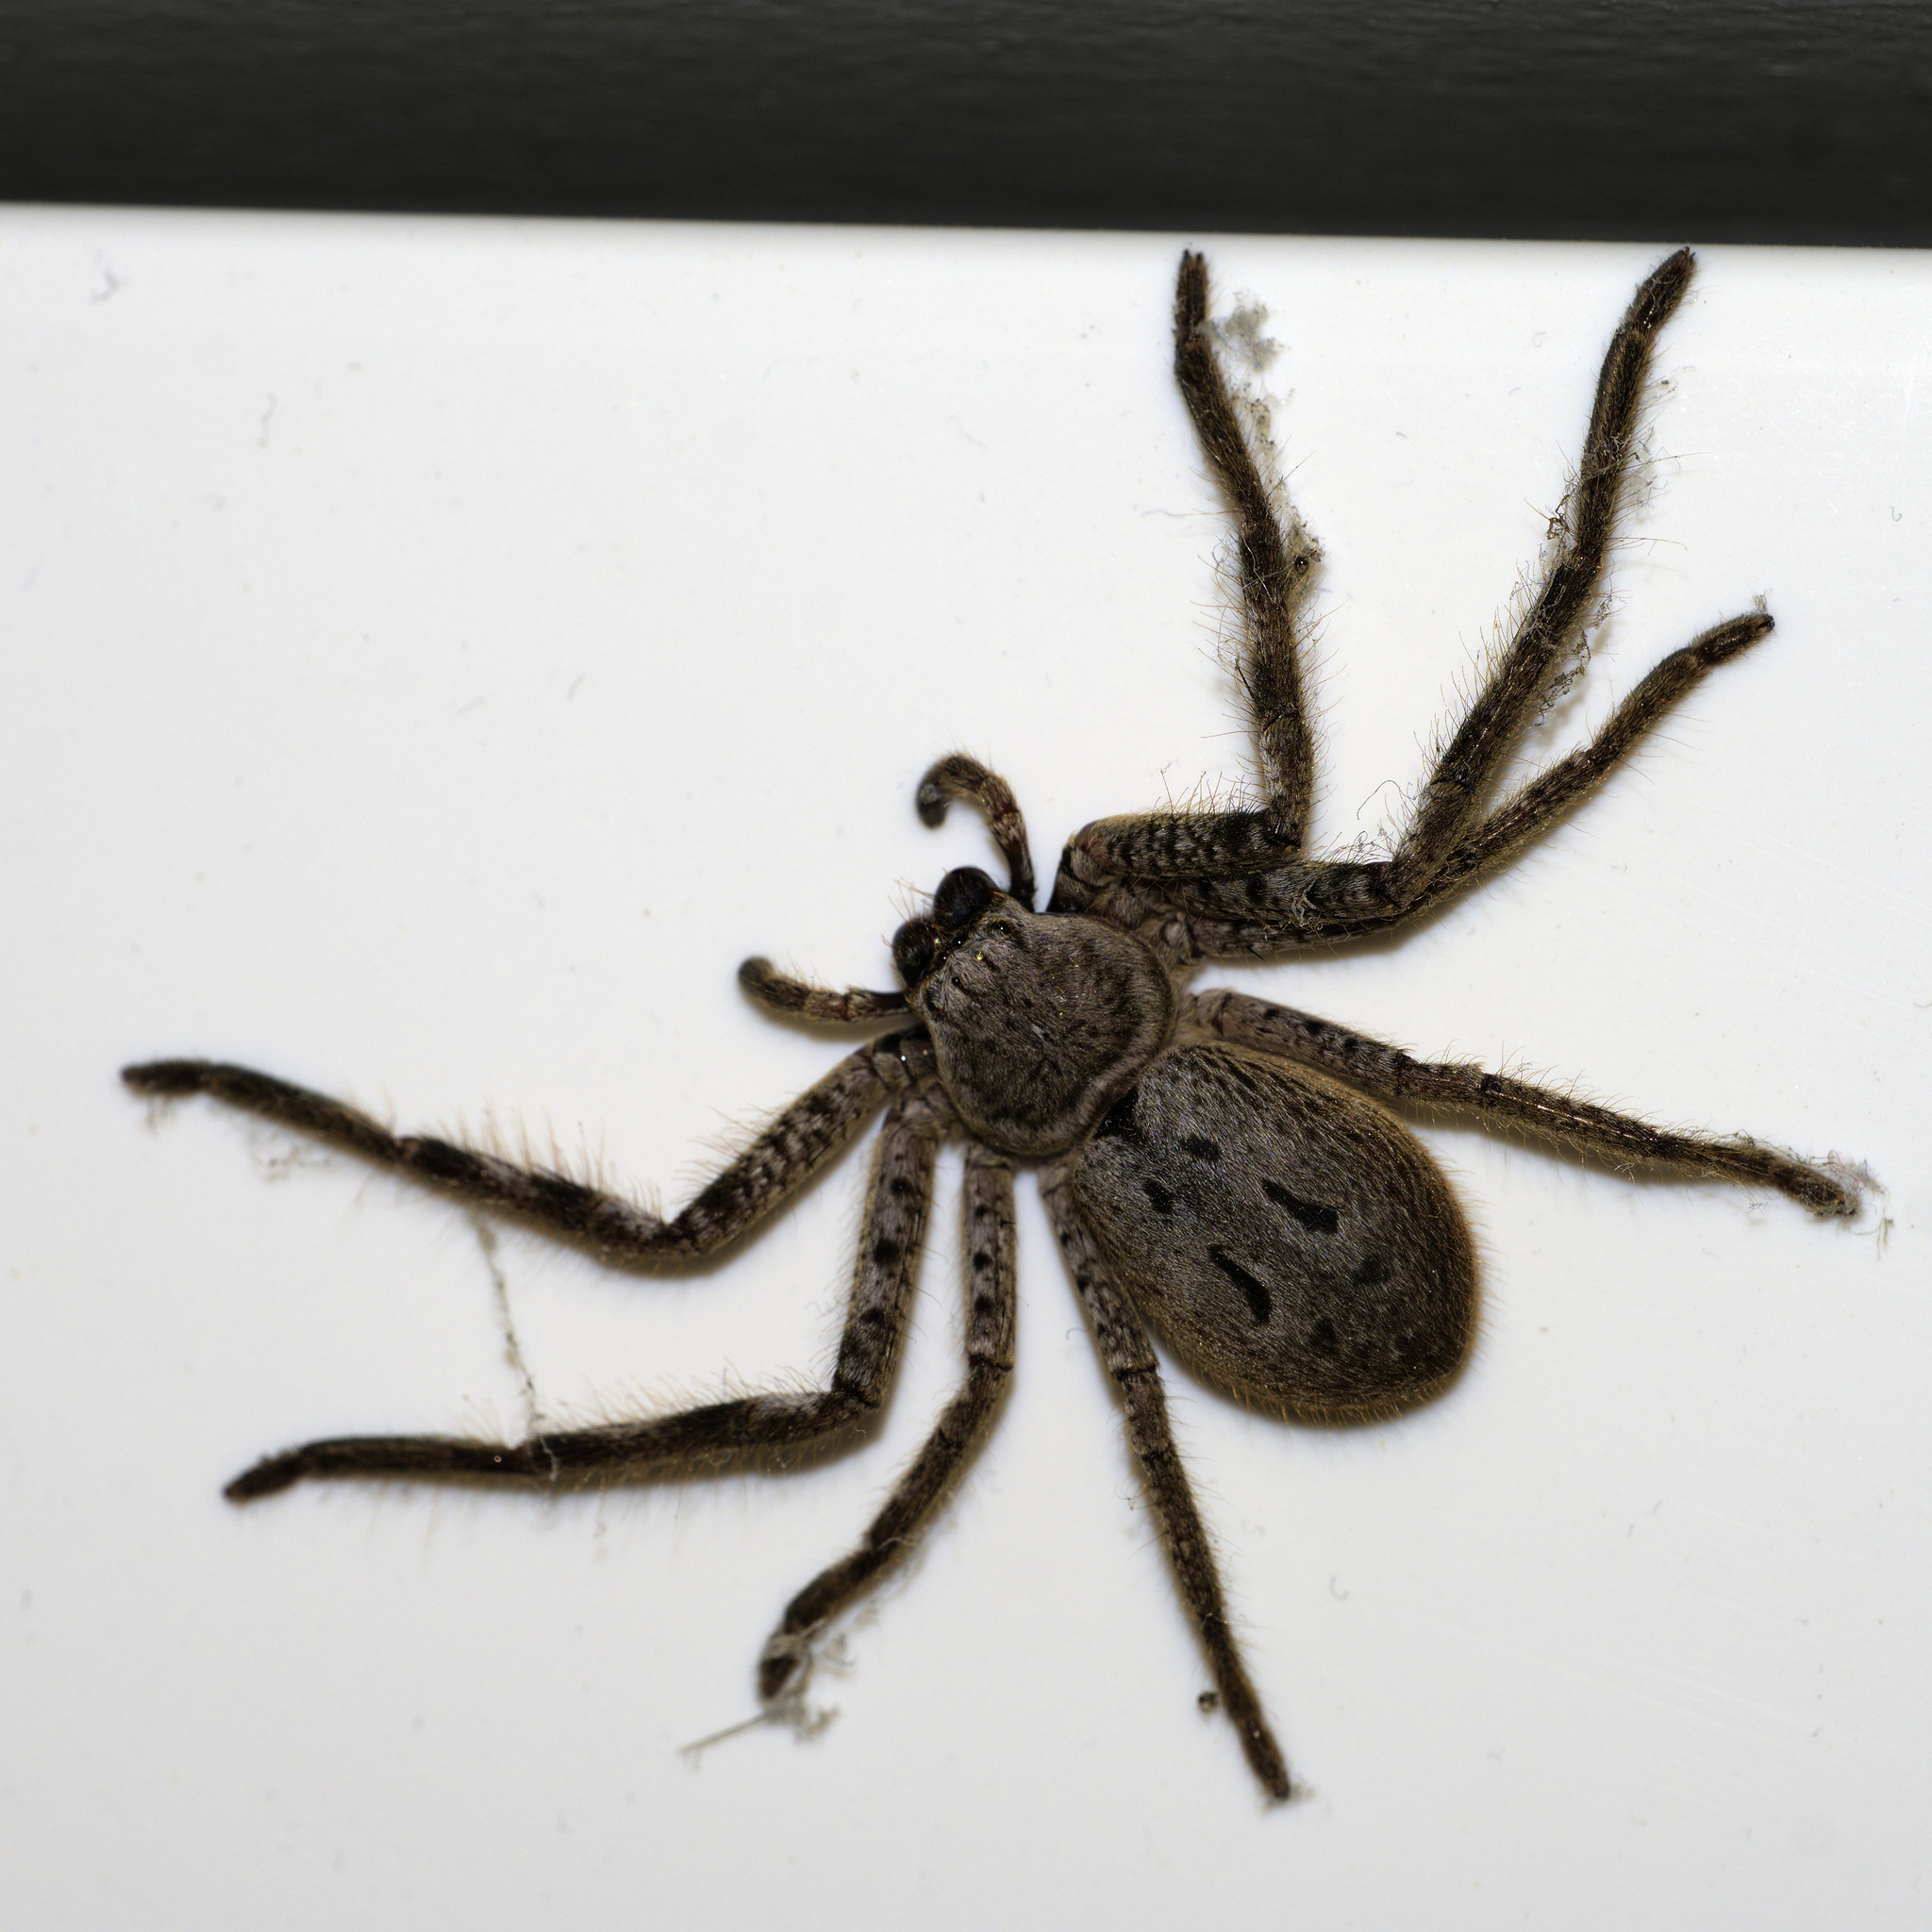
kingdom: Animalia
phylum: Arthropoda
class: Arachnida
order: Araneae
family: Sparassidae
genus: Isopeda
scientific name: Isopeda montana
